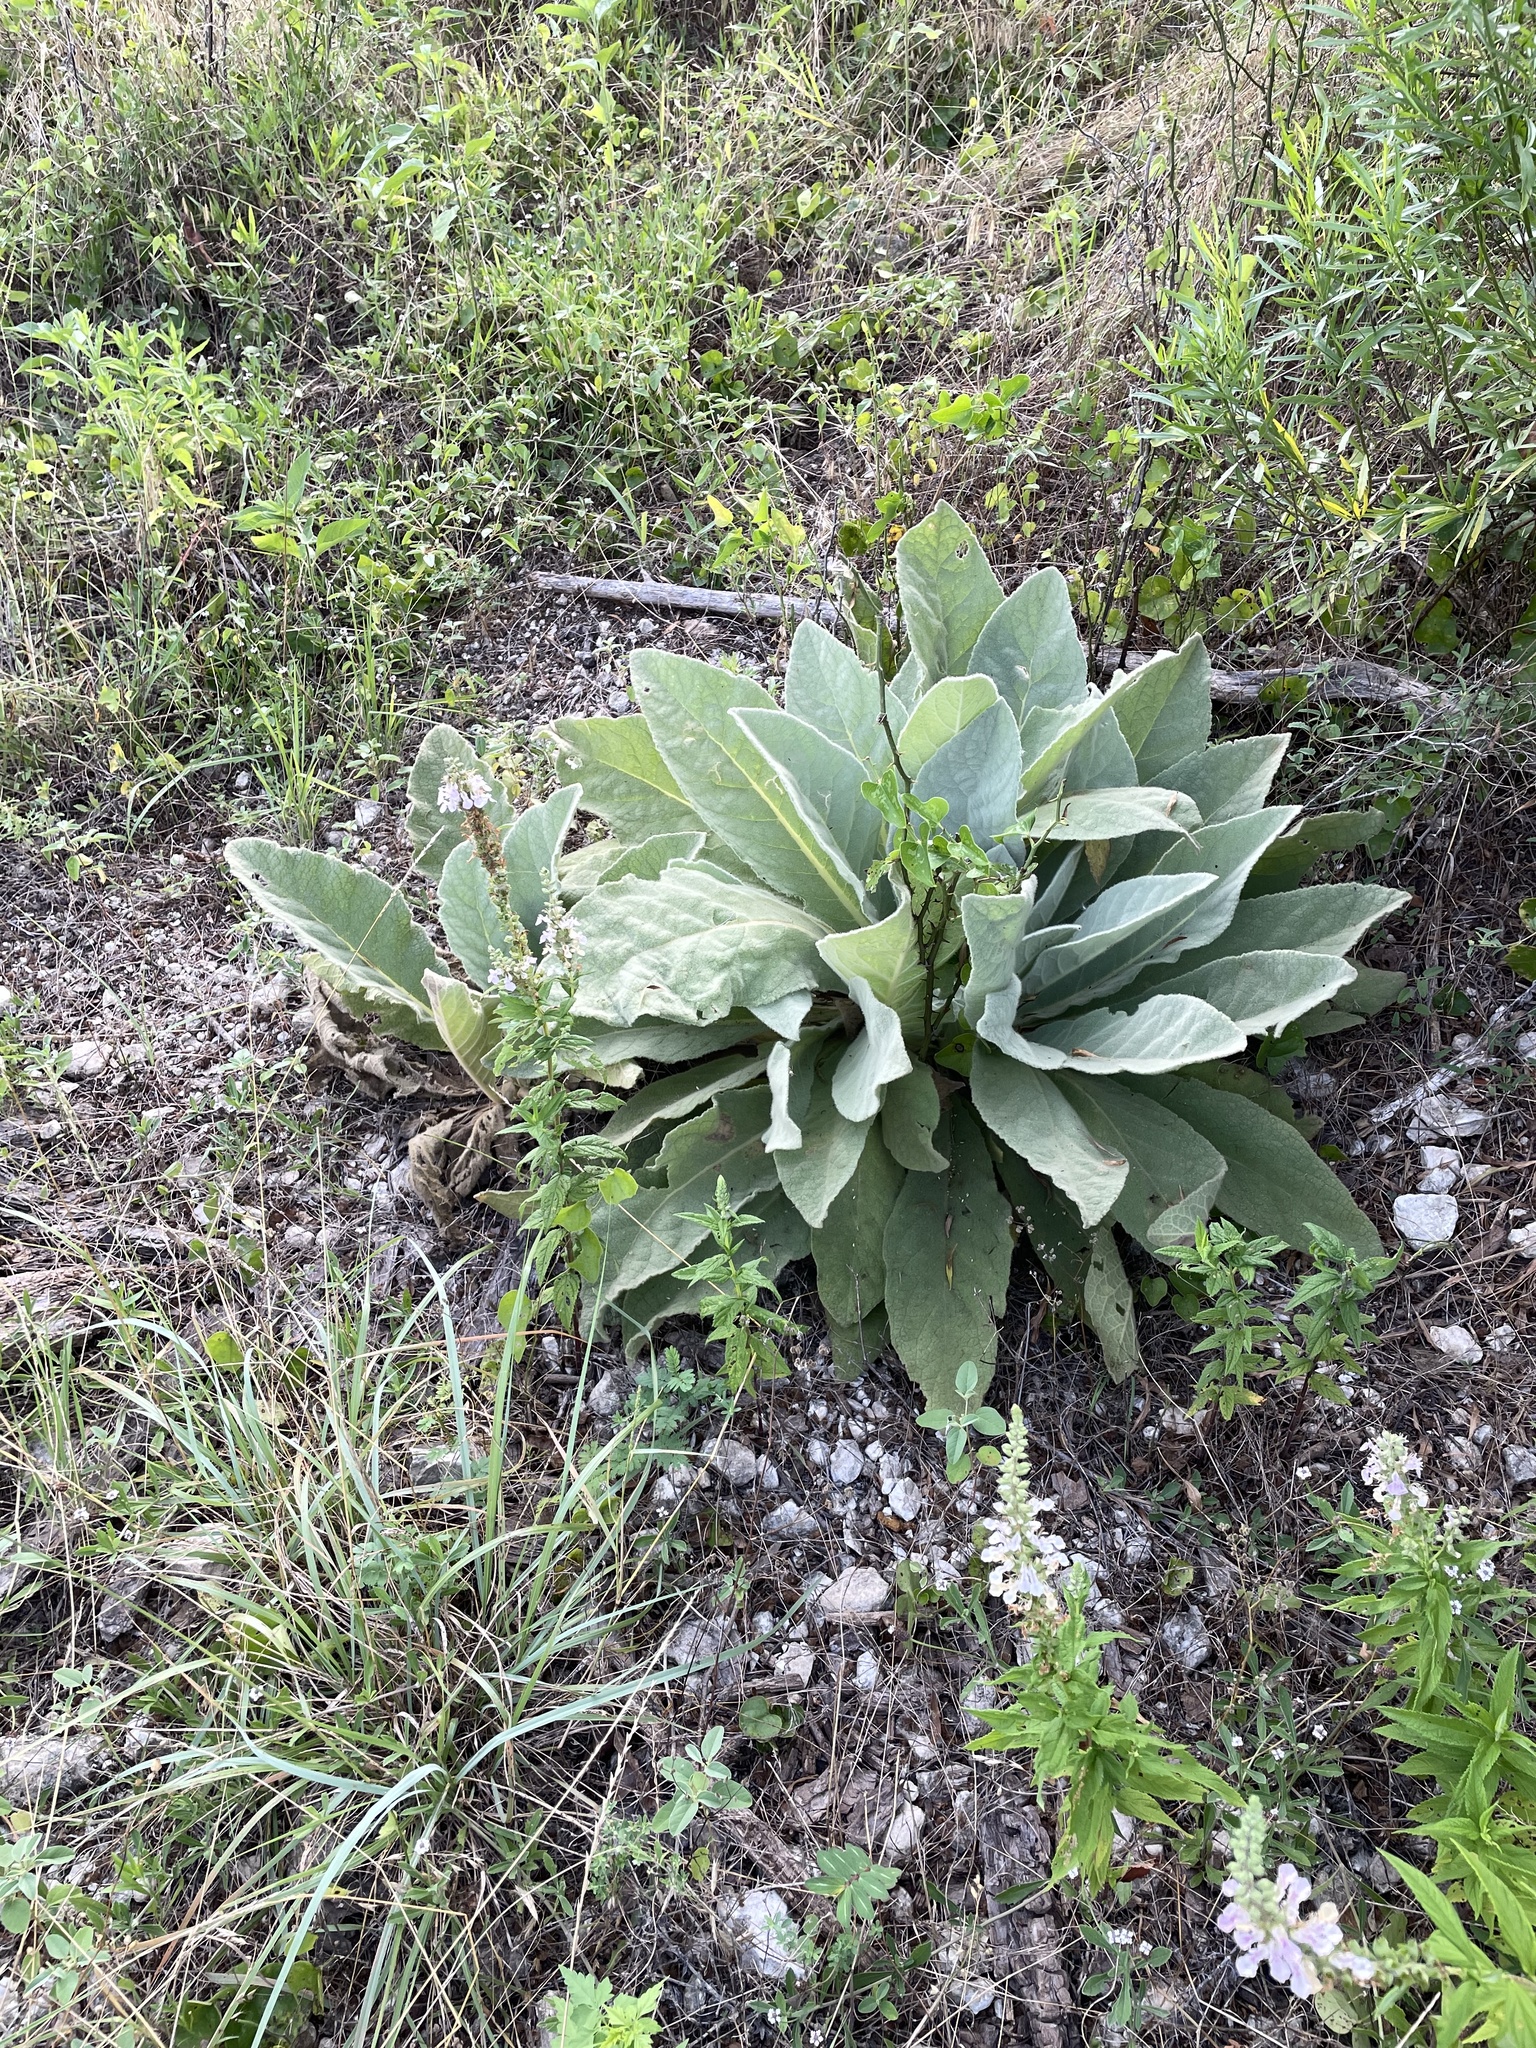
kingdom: Plantae
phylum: Tracheophyta
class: Magnoliopsida
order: Lamiales
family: Scrophulariaceae
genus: Verbascum
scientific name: Verbascum thapsus
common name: Common mullein
